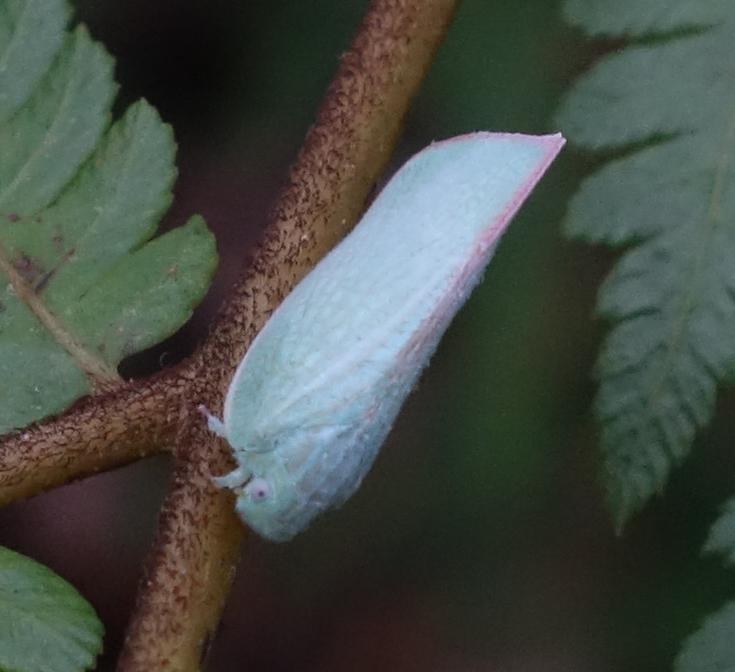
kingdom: Animalia
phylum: Arthropoda
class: Insecta
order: Hemiptera
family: Flatidae
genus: Geisha
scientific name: Geisha distinctissima
